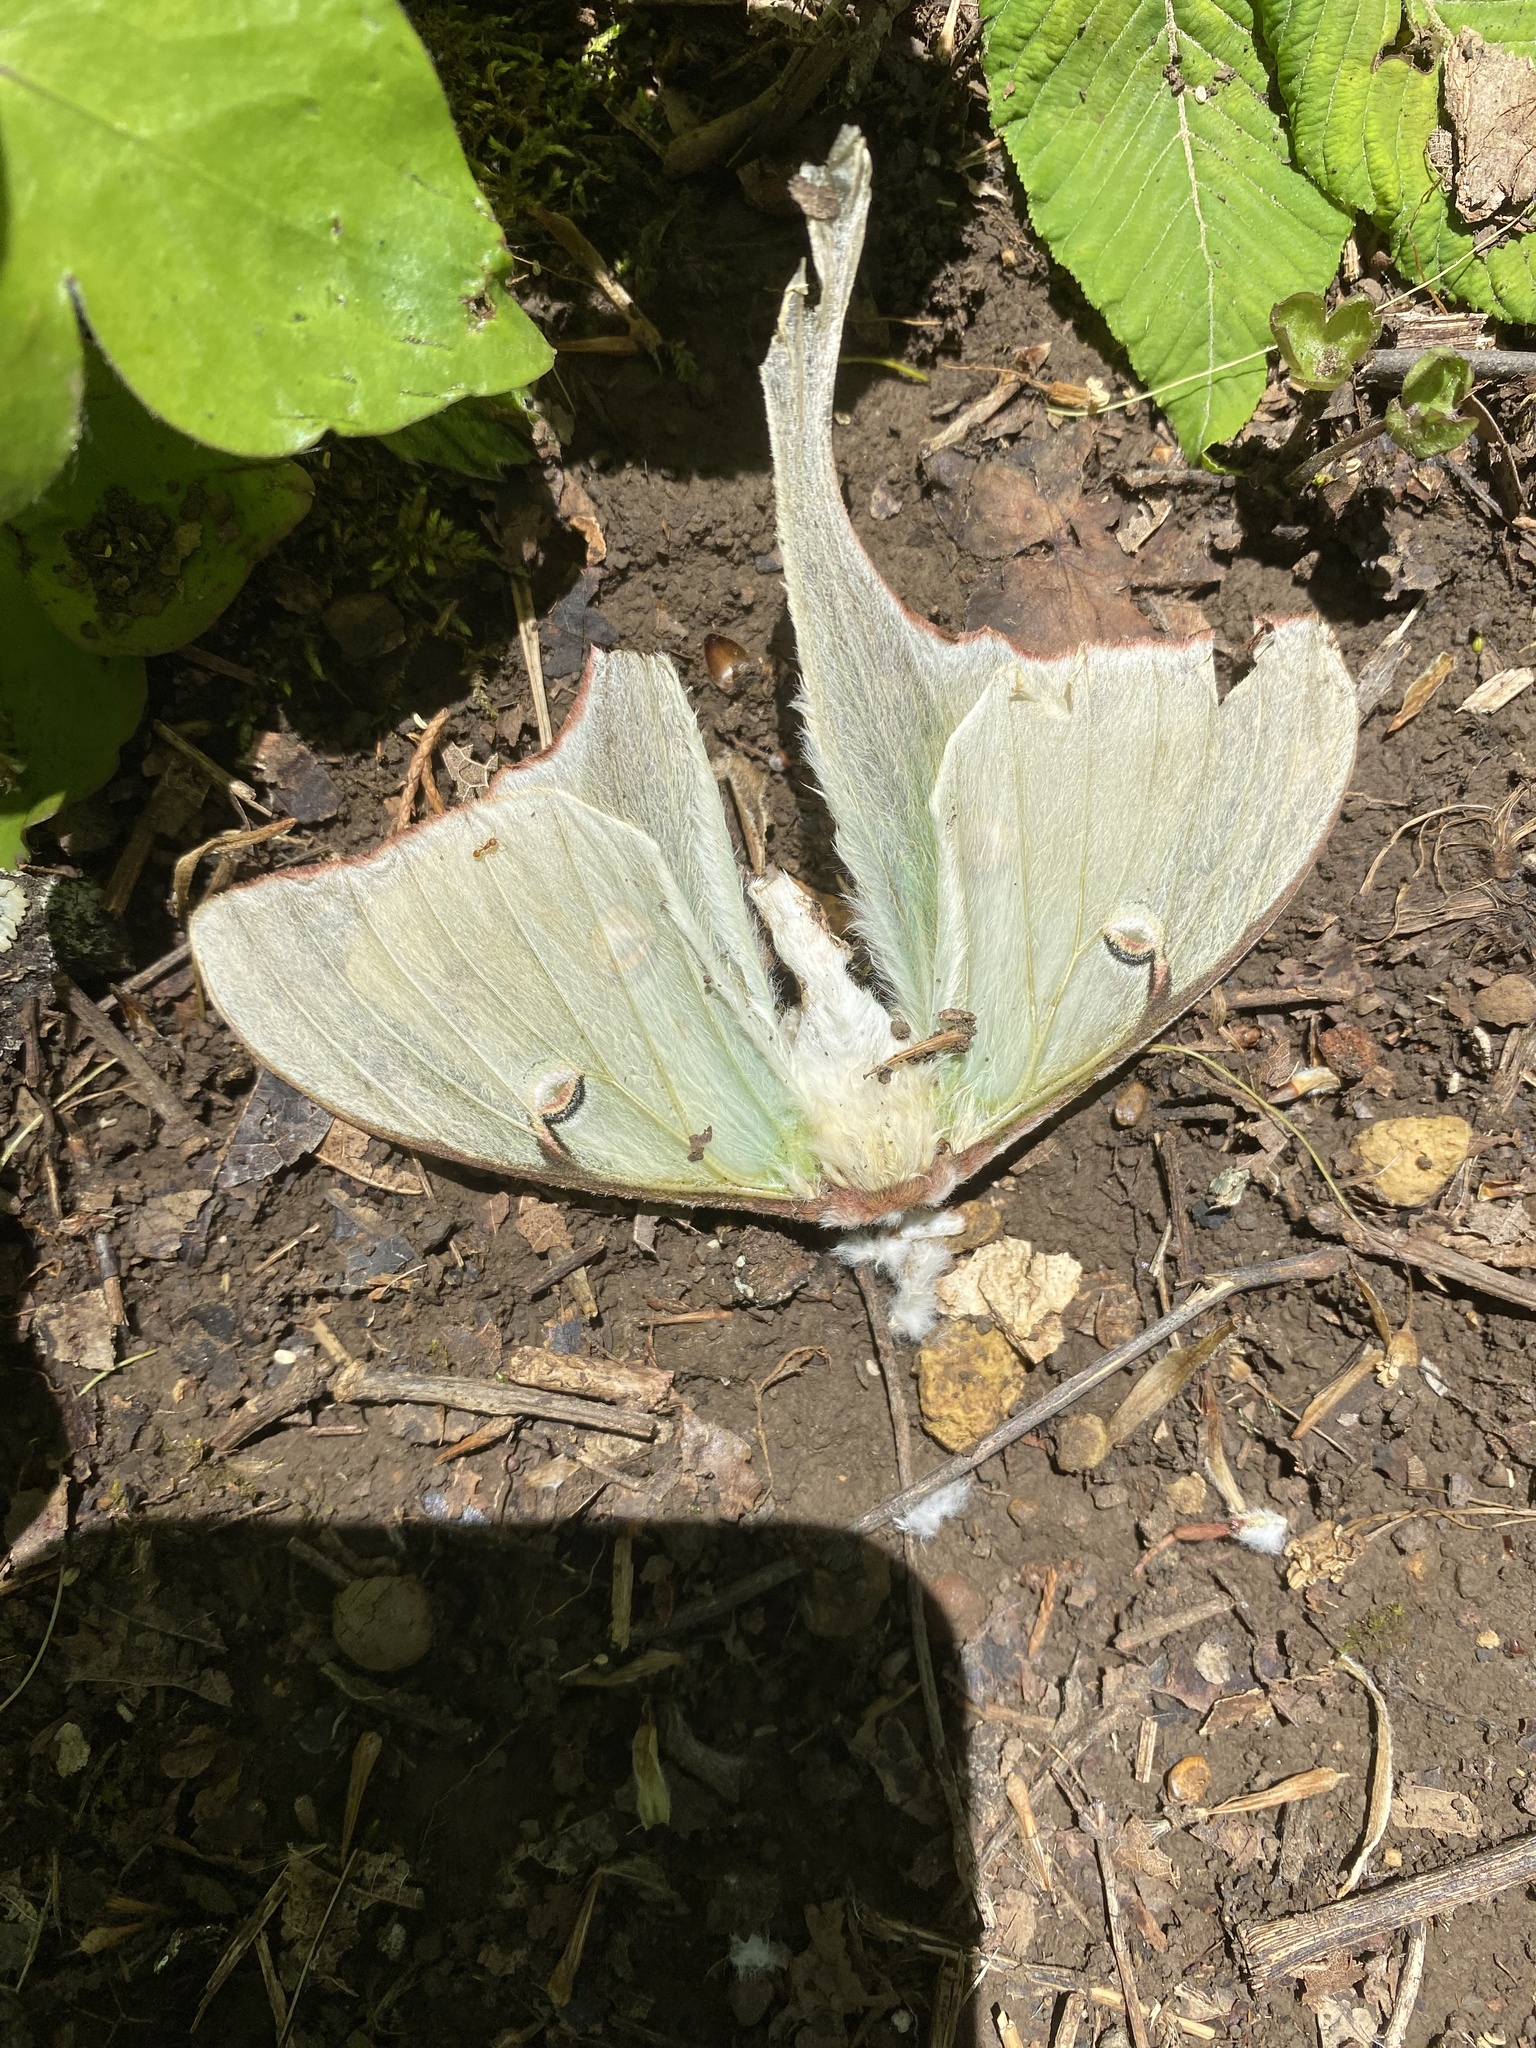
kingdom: Animalia
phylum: Arthropoda
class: Insecta
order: Lepidoptera
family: Saturniidae
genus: Actias
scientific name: Actias luna
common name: Luna moth
